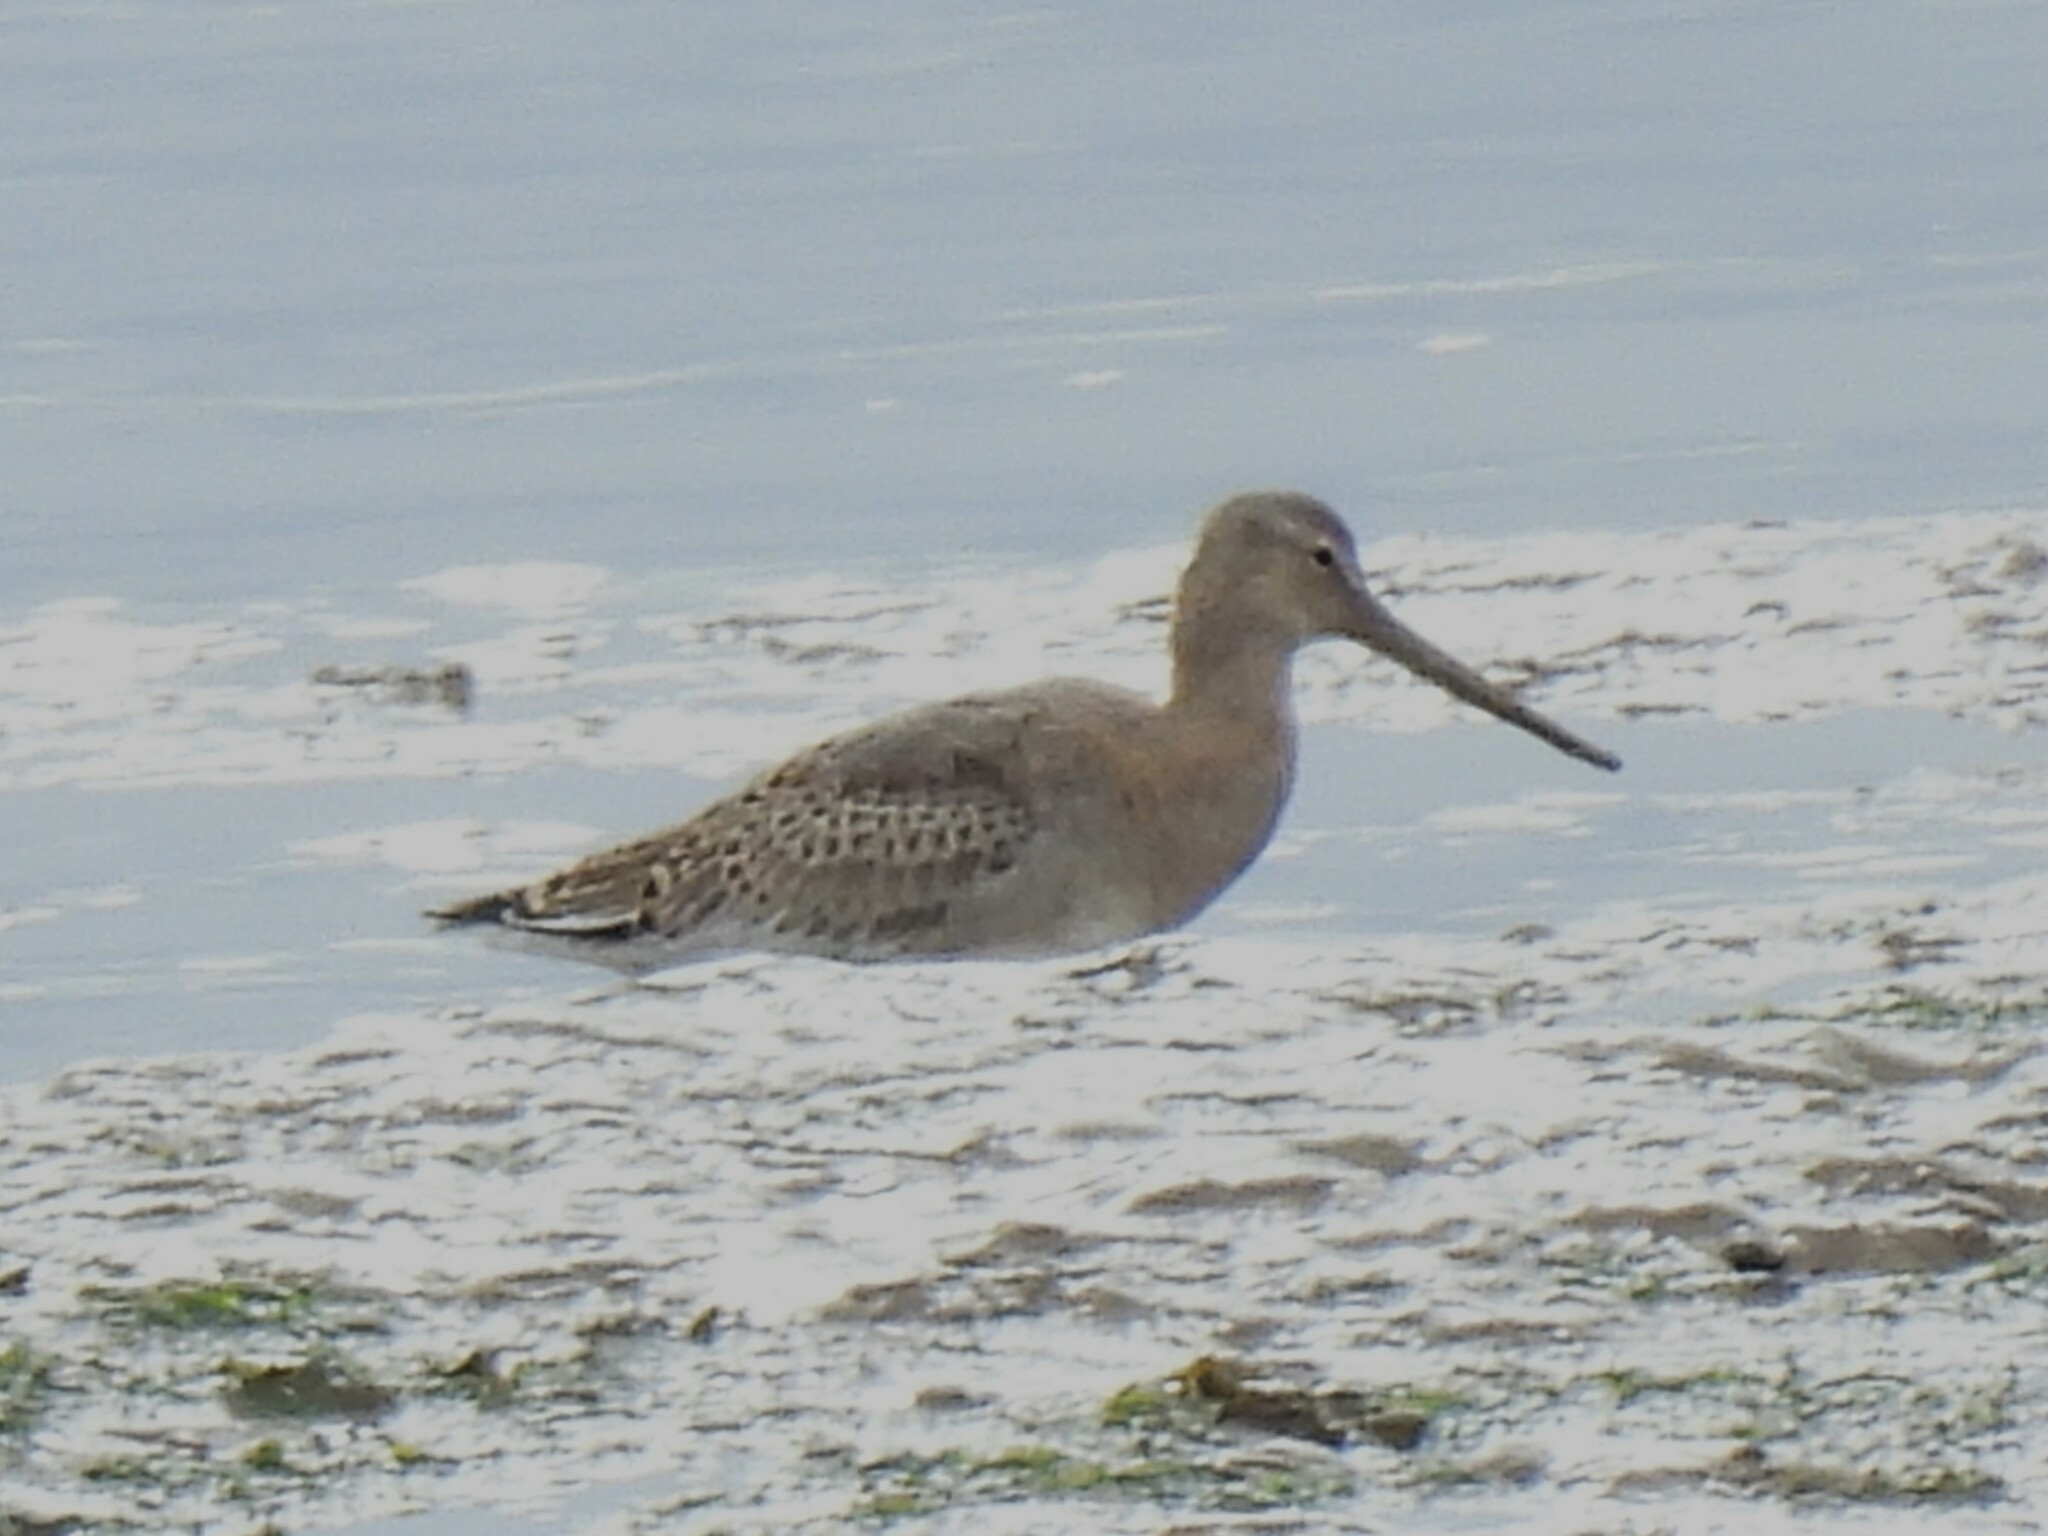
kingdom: Animalia
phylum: Chordata
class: Aves
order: Charadriiformes
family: Scolopacidae
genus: Limosa
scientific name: Limosa limosa
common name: Black-tailed godwit
